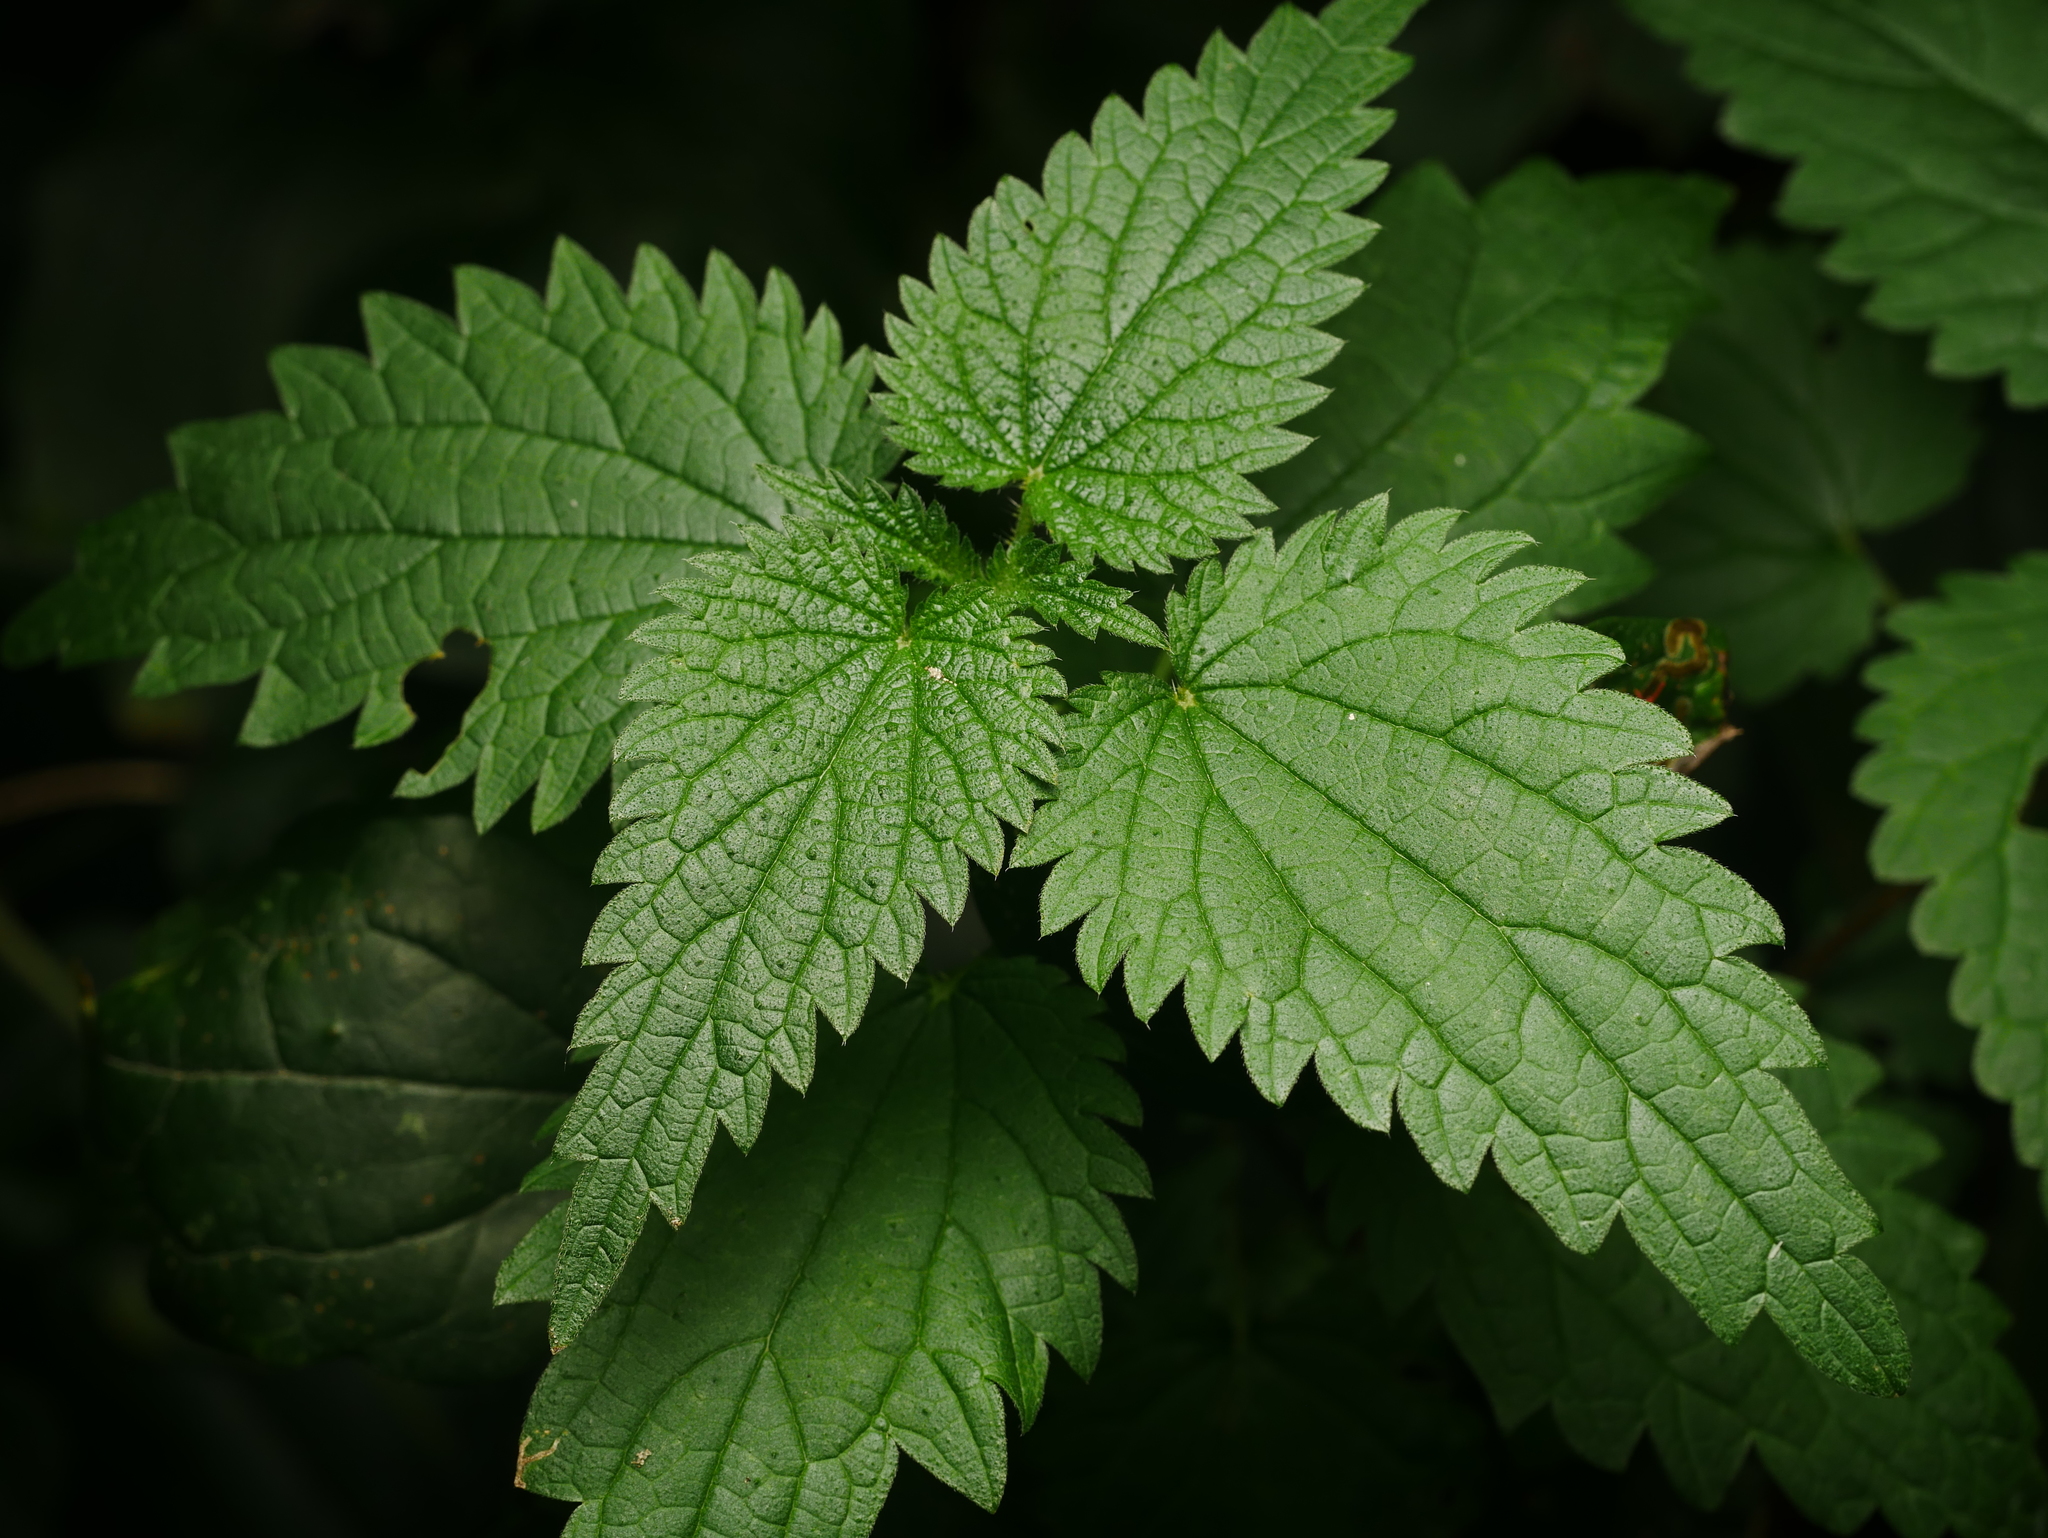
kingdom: Plantae
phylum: Tracheophyta
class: Magnoliopsida
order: Rosales
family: Urticaceae
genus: Urtica
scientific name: Urtica dioica
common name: Common nettle
